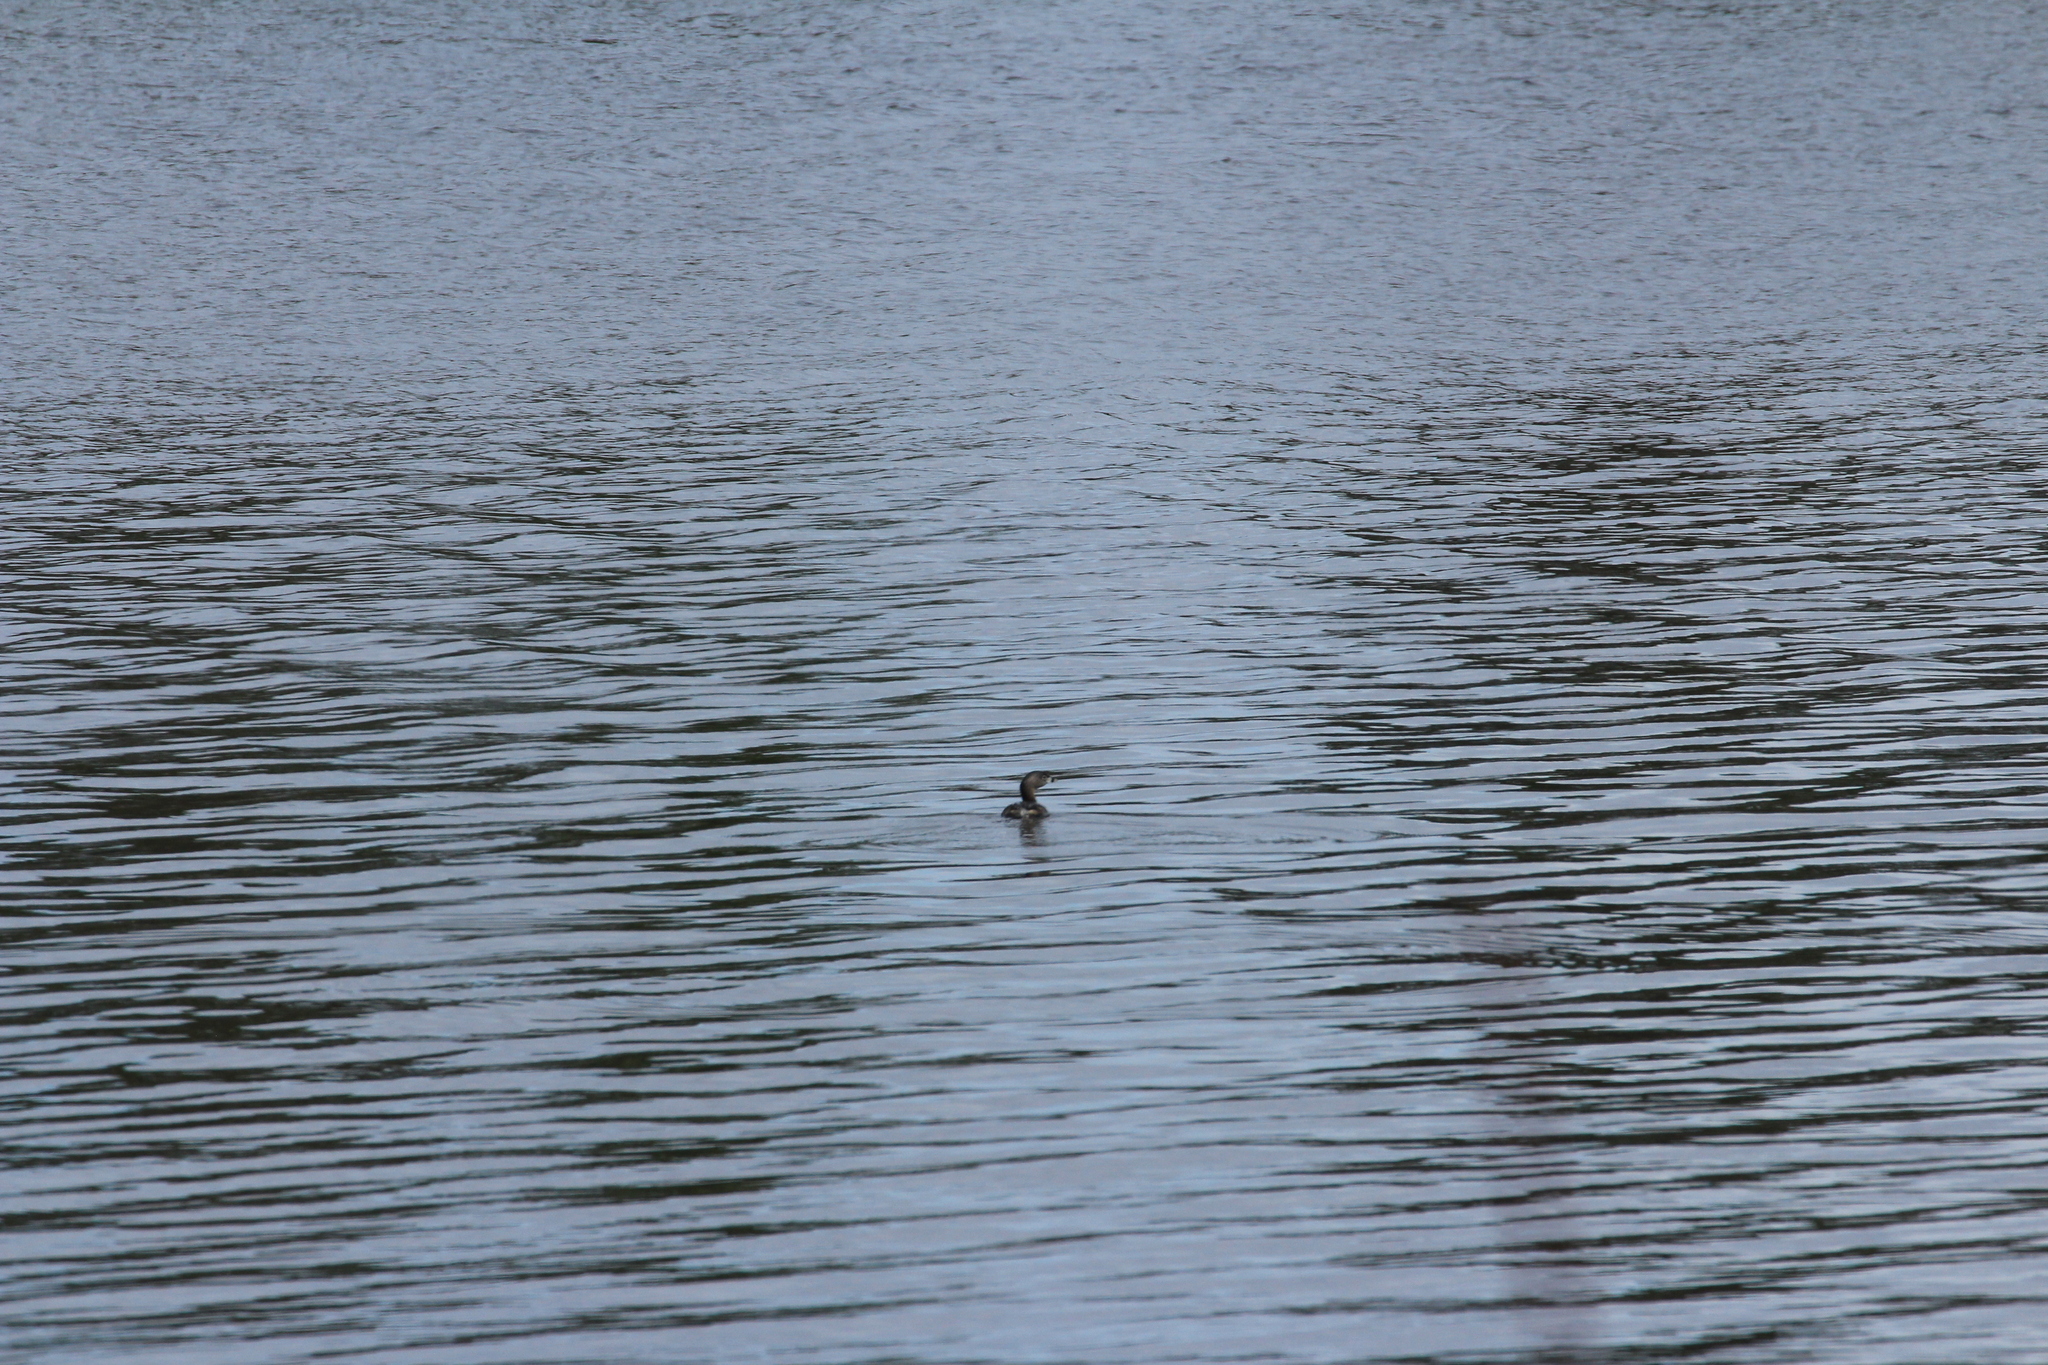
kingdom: Animalia
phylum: Chordata
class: Aves
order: Podicipediformes
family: Podicipedidae
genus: Podilymbus
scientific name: Podilymbus podiceps
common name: Pied-billed grebe
